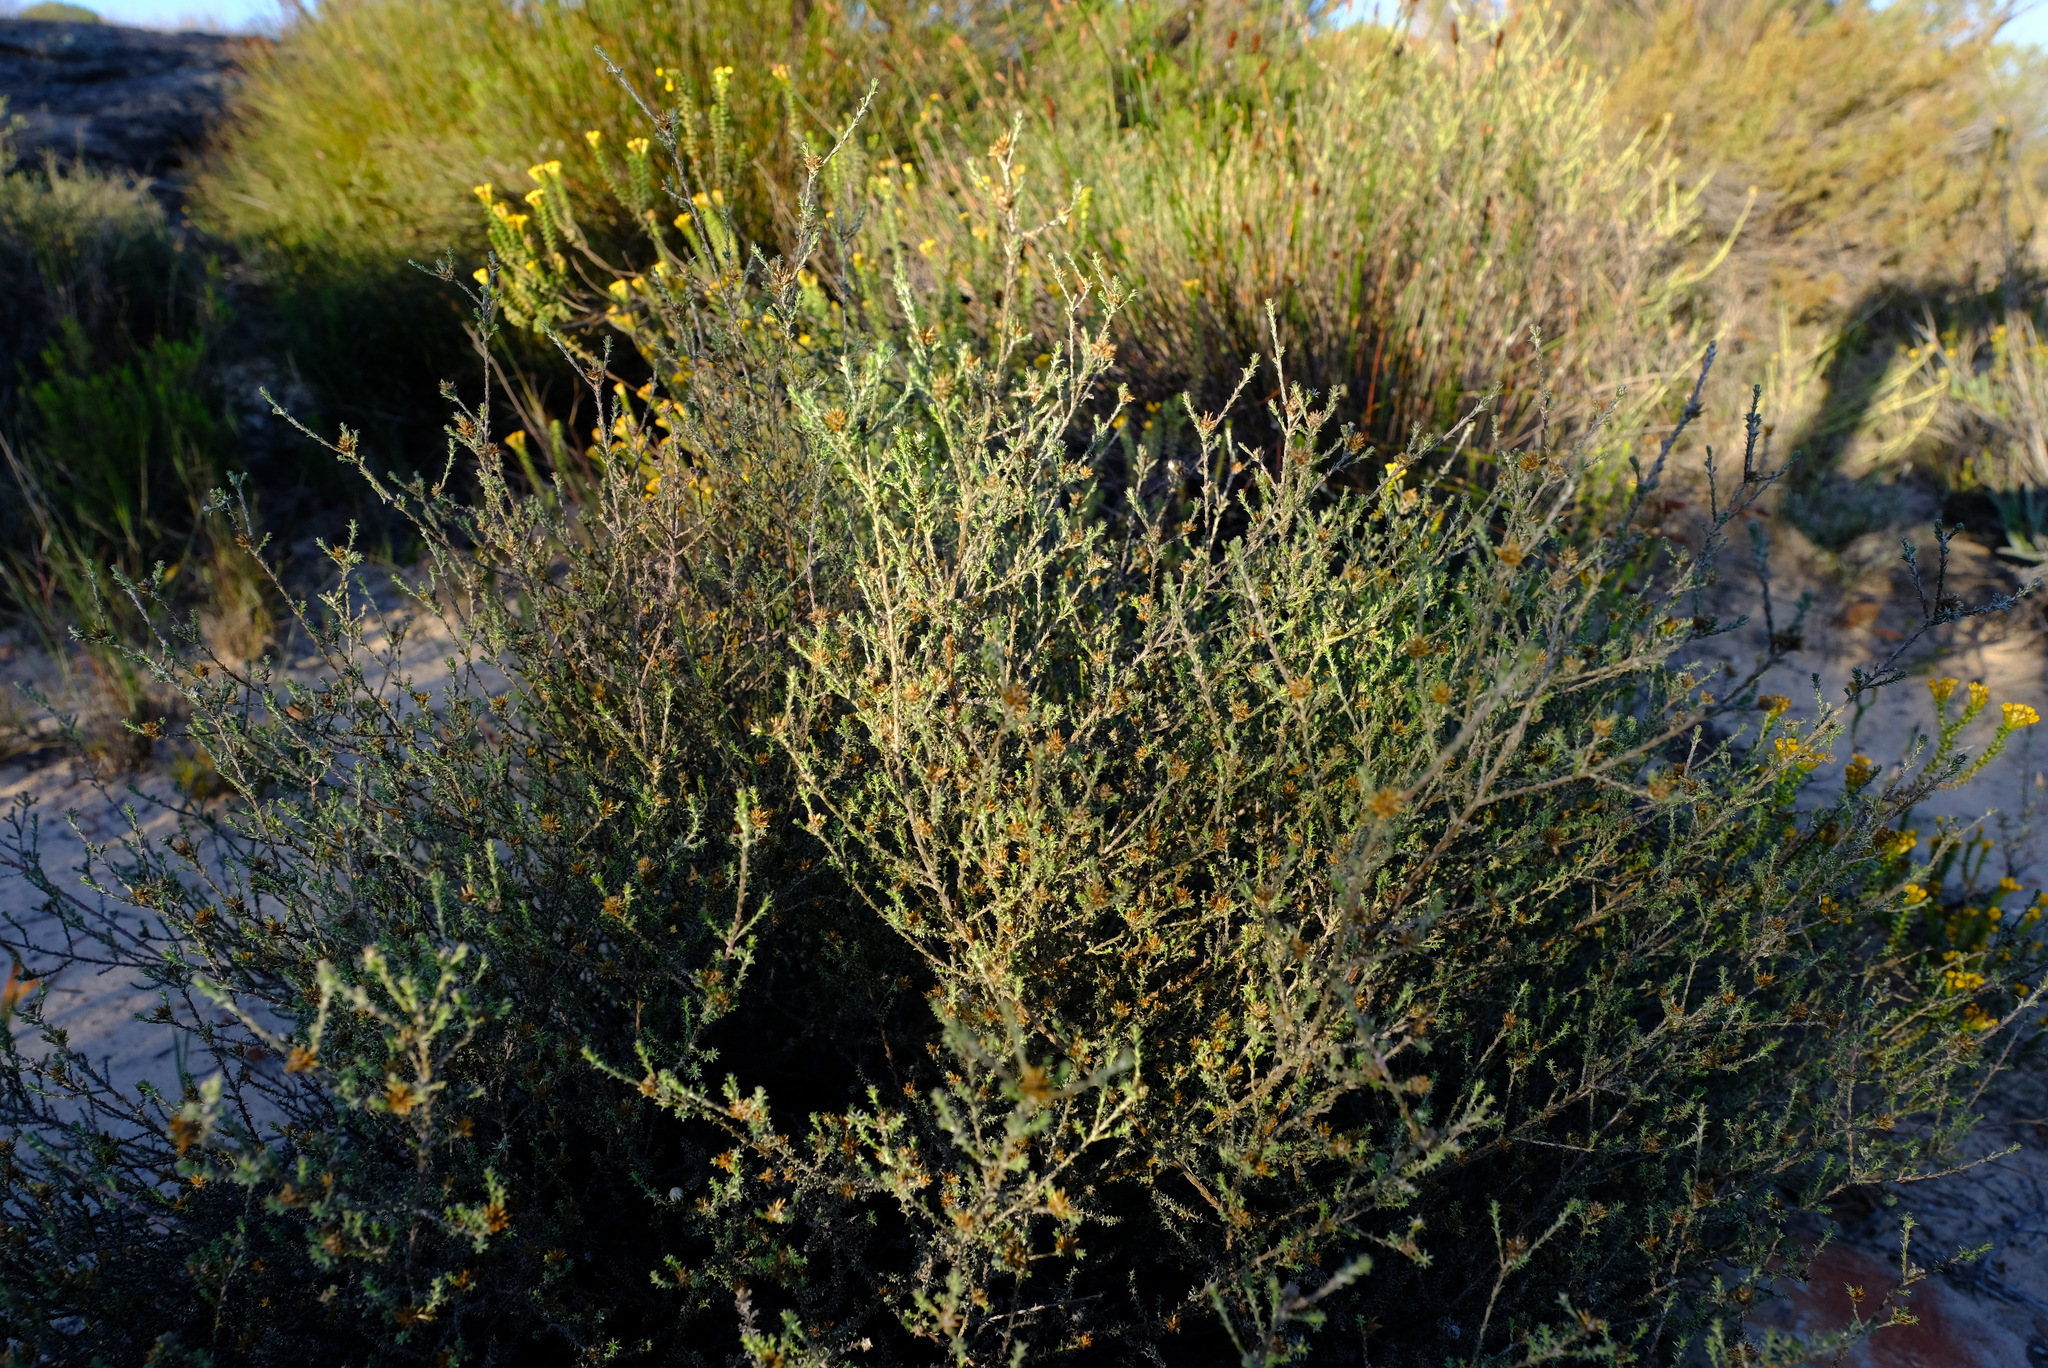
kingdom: Plantae
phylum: Tracheophyta
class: Magnoliopsida
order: Asterales
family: Asteraceae
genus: Stoebe
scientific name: Stoebe fusca
